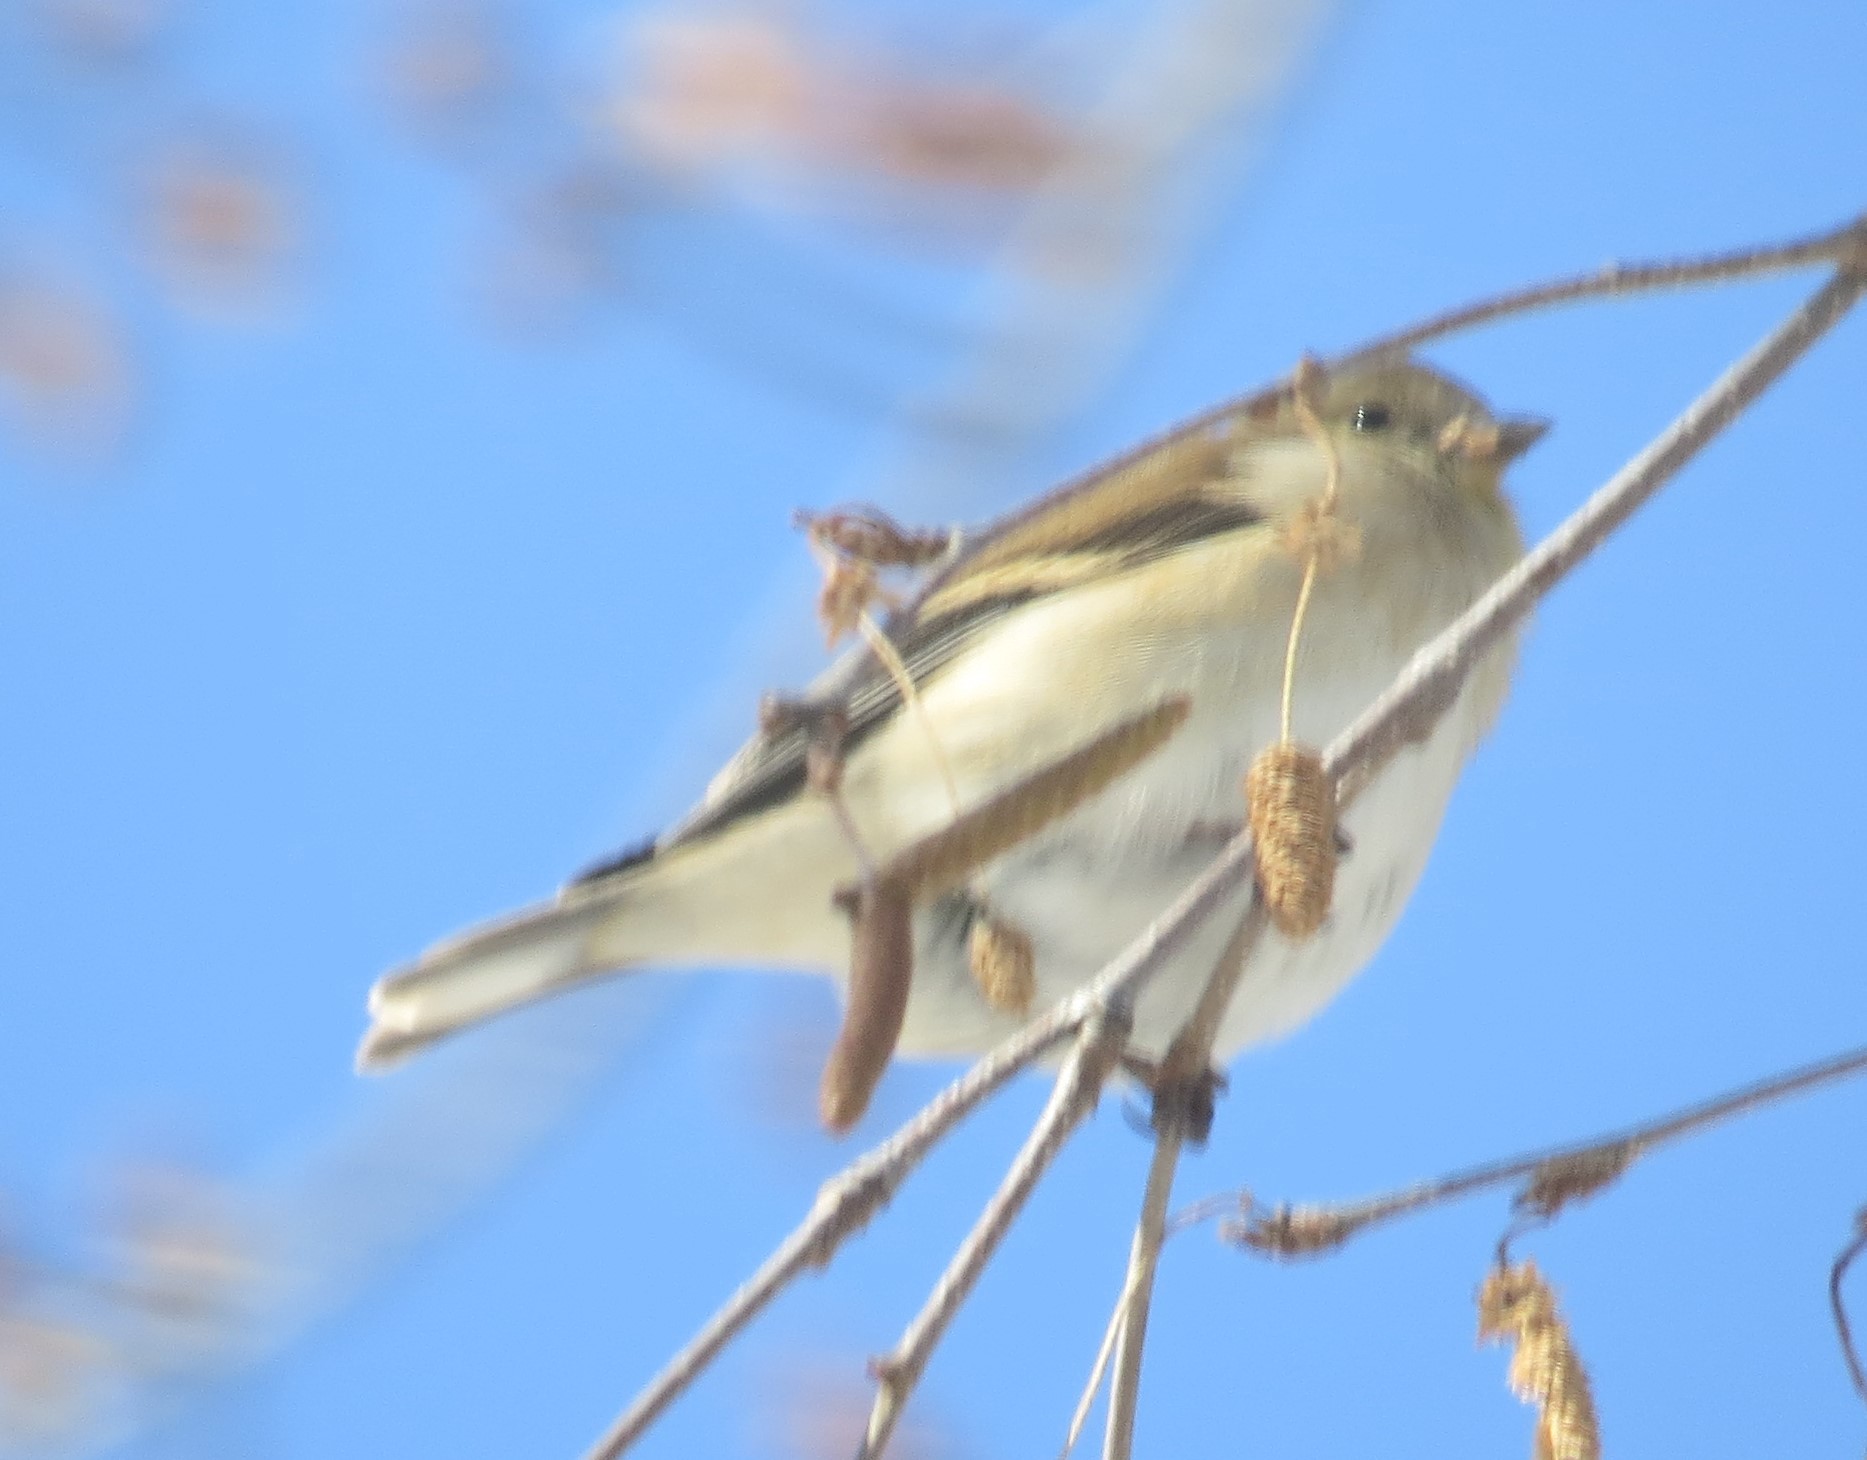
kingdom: Animalia
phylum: Chordata
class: Aves
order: Passeriformes
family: Fringillidae
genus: Spinus
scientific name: Spinus tristis
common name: American goldfinch
